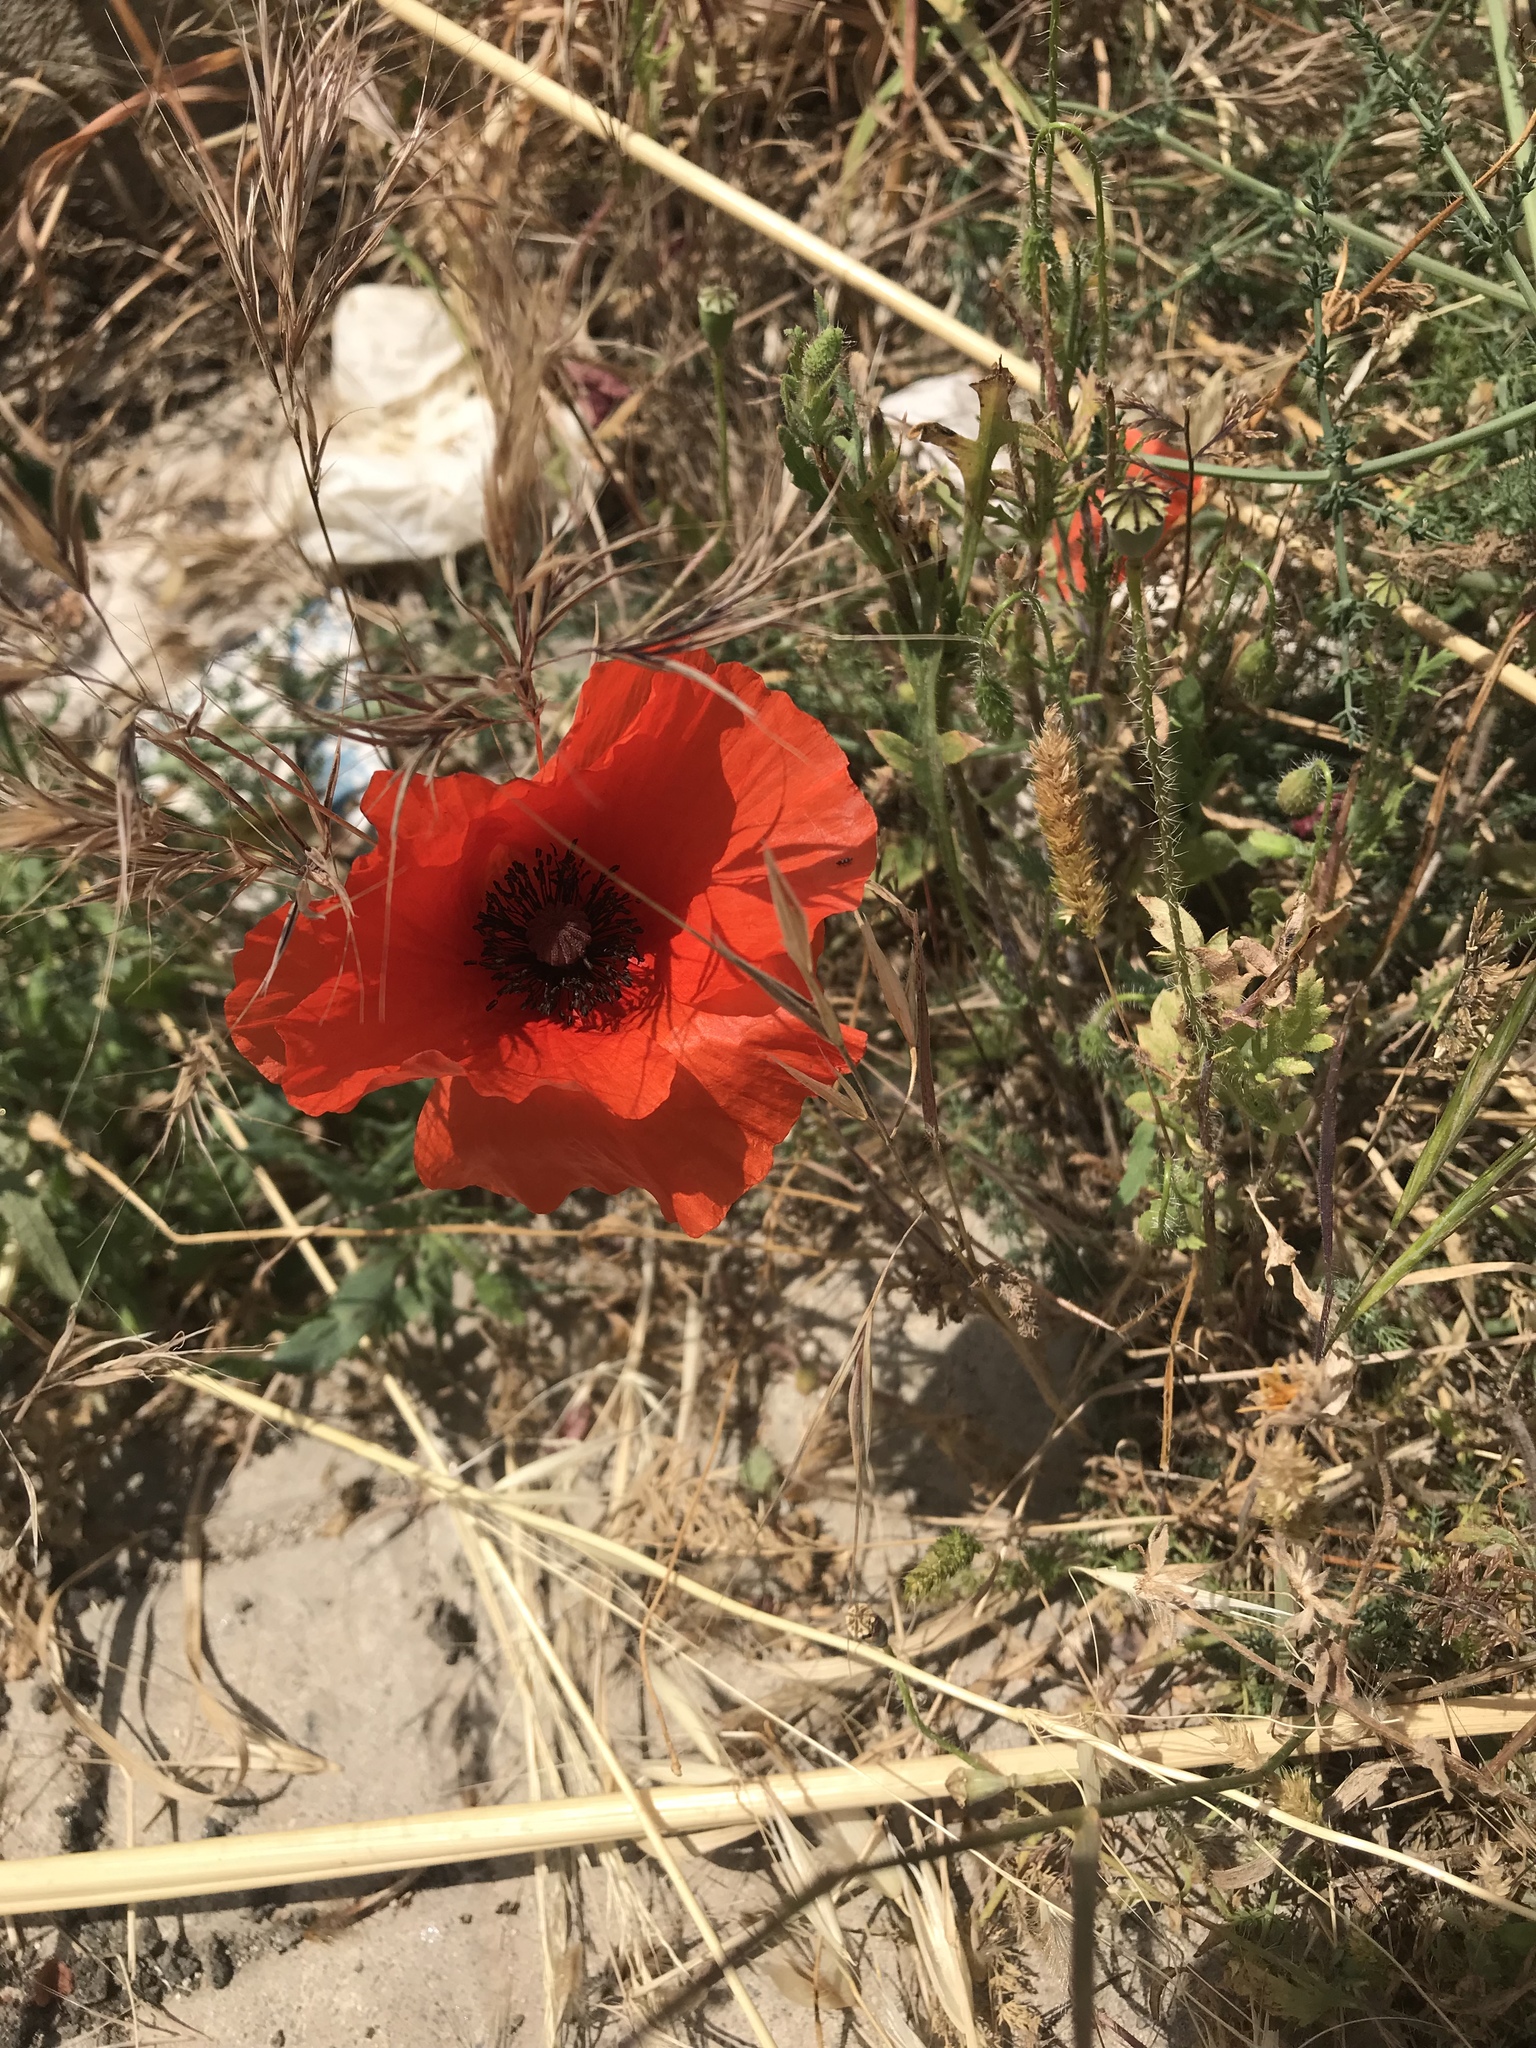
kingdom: Plantae
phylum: Tracheophyta
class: Magnoliopsida
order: Ranunculales
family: Papaveraceae
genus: Papaver
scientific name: Papaver rhoeas
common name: Corn poppy
